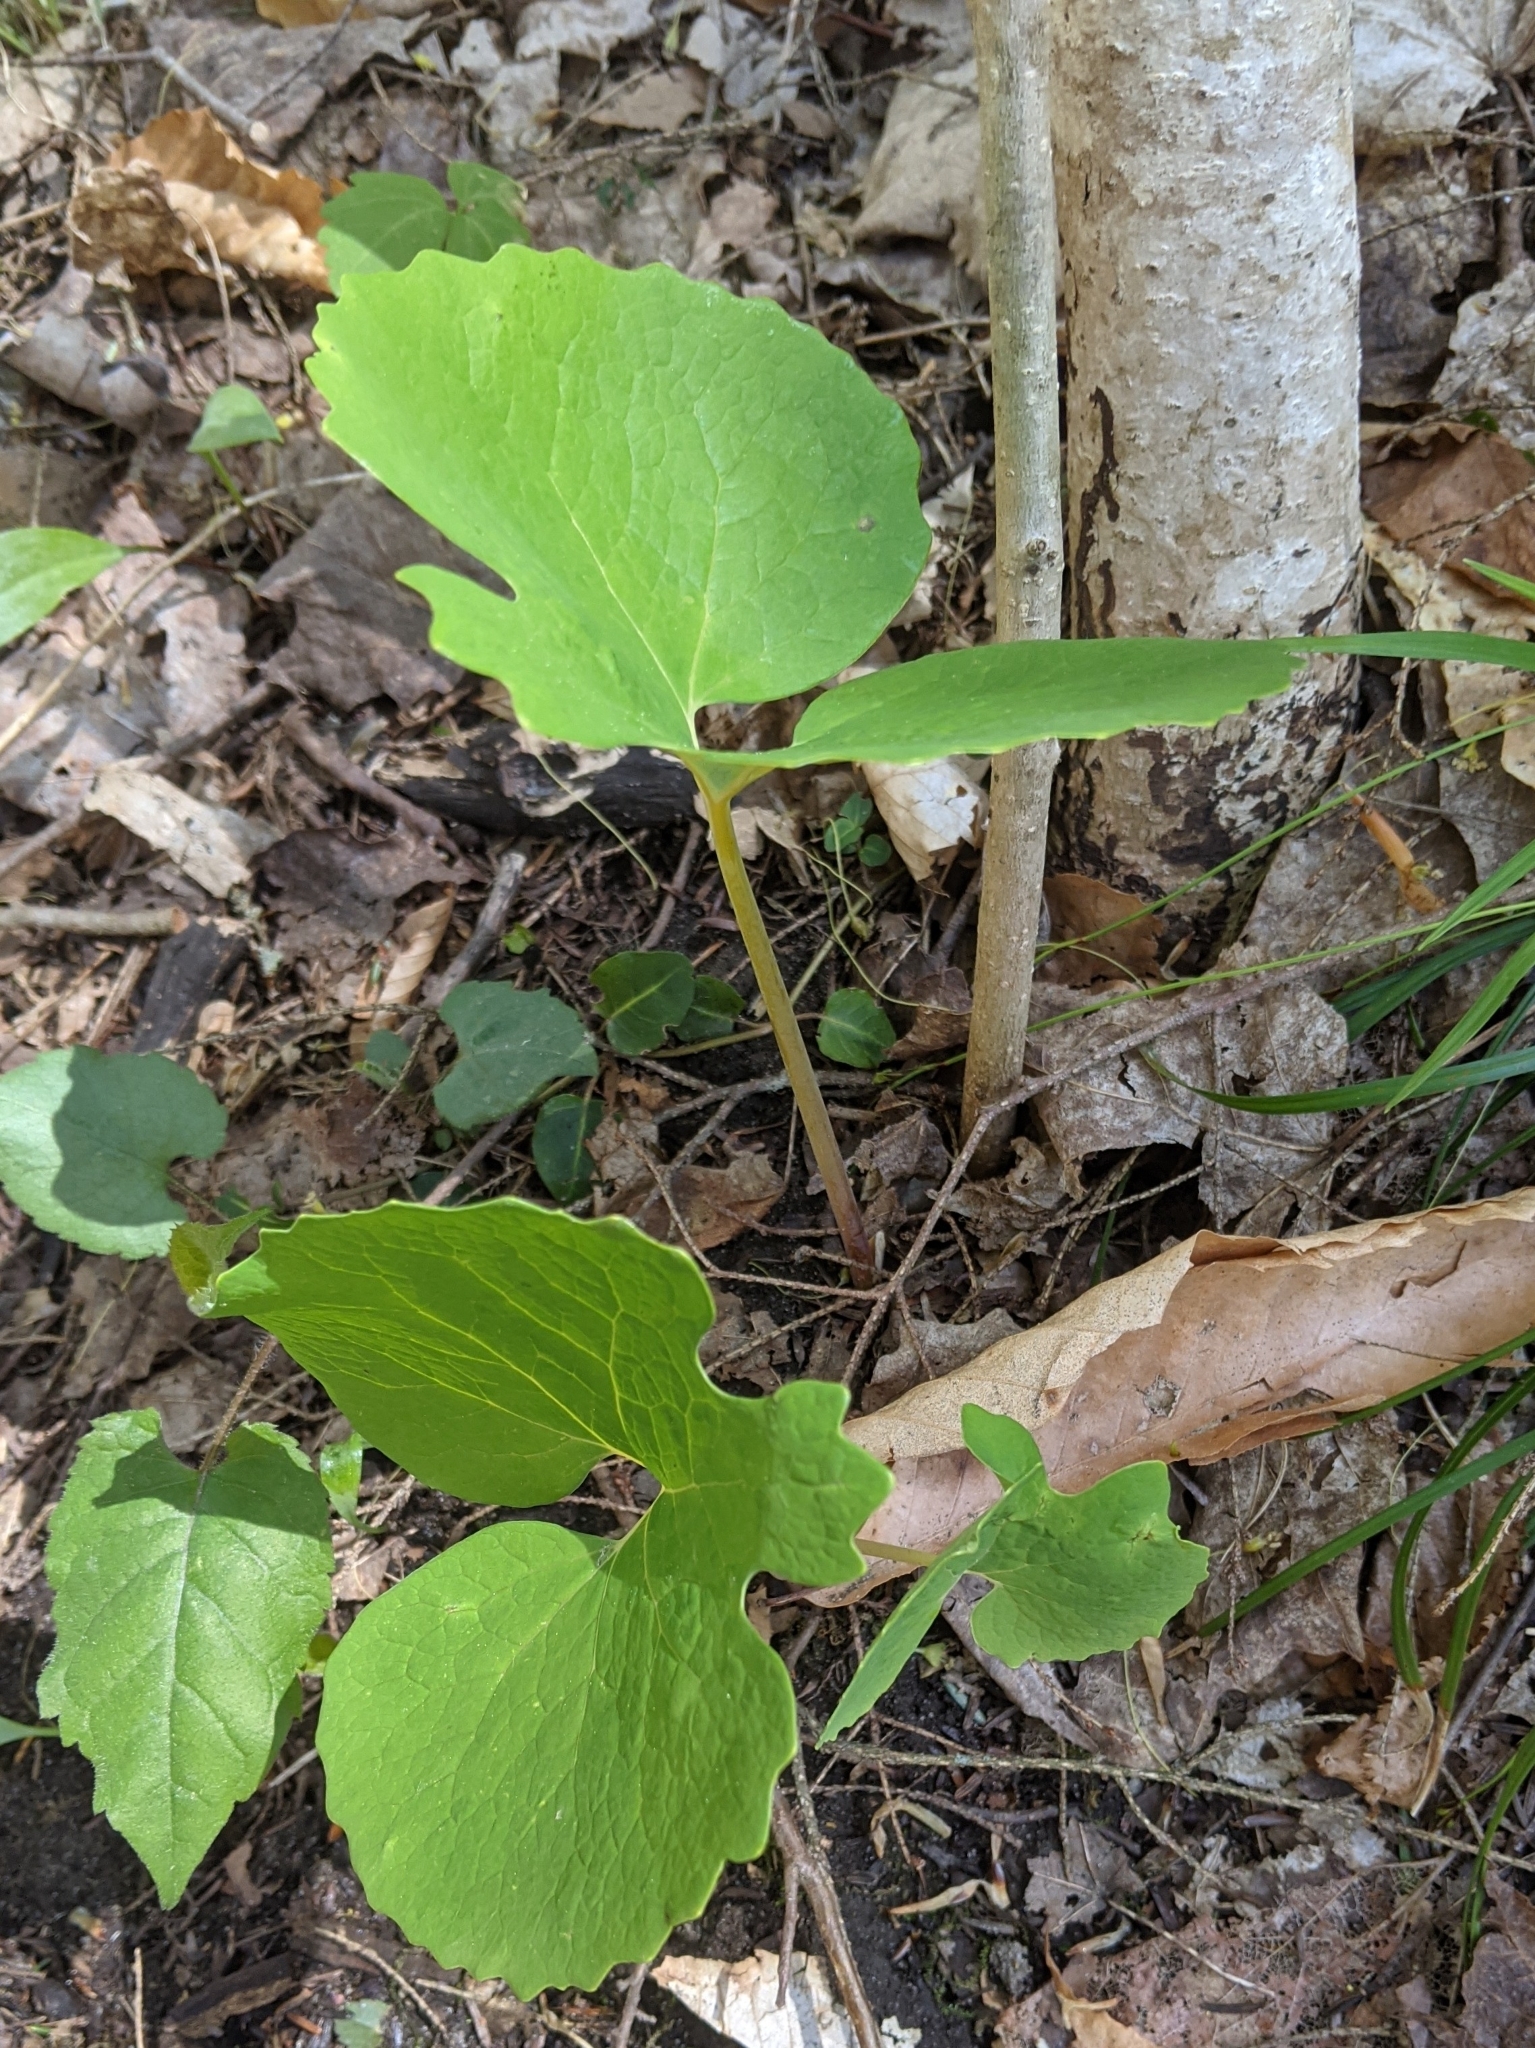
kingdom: Plantae
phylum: Tracheophyta
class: Magnoliopsida
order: Ranunculales
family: Papaveraceae
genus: Sanguinaria
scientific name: Sanguinaria canadensis
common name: Bloodroot
